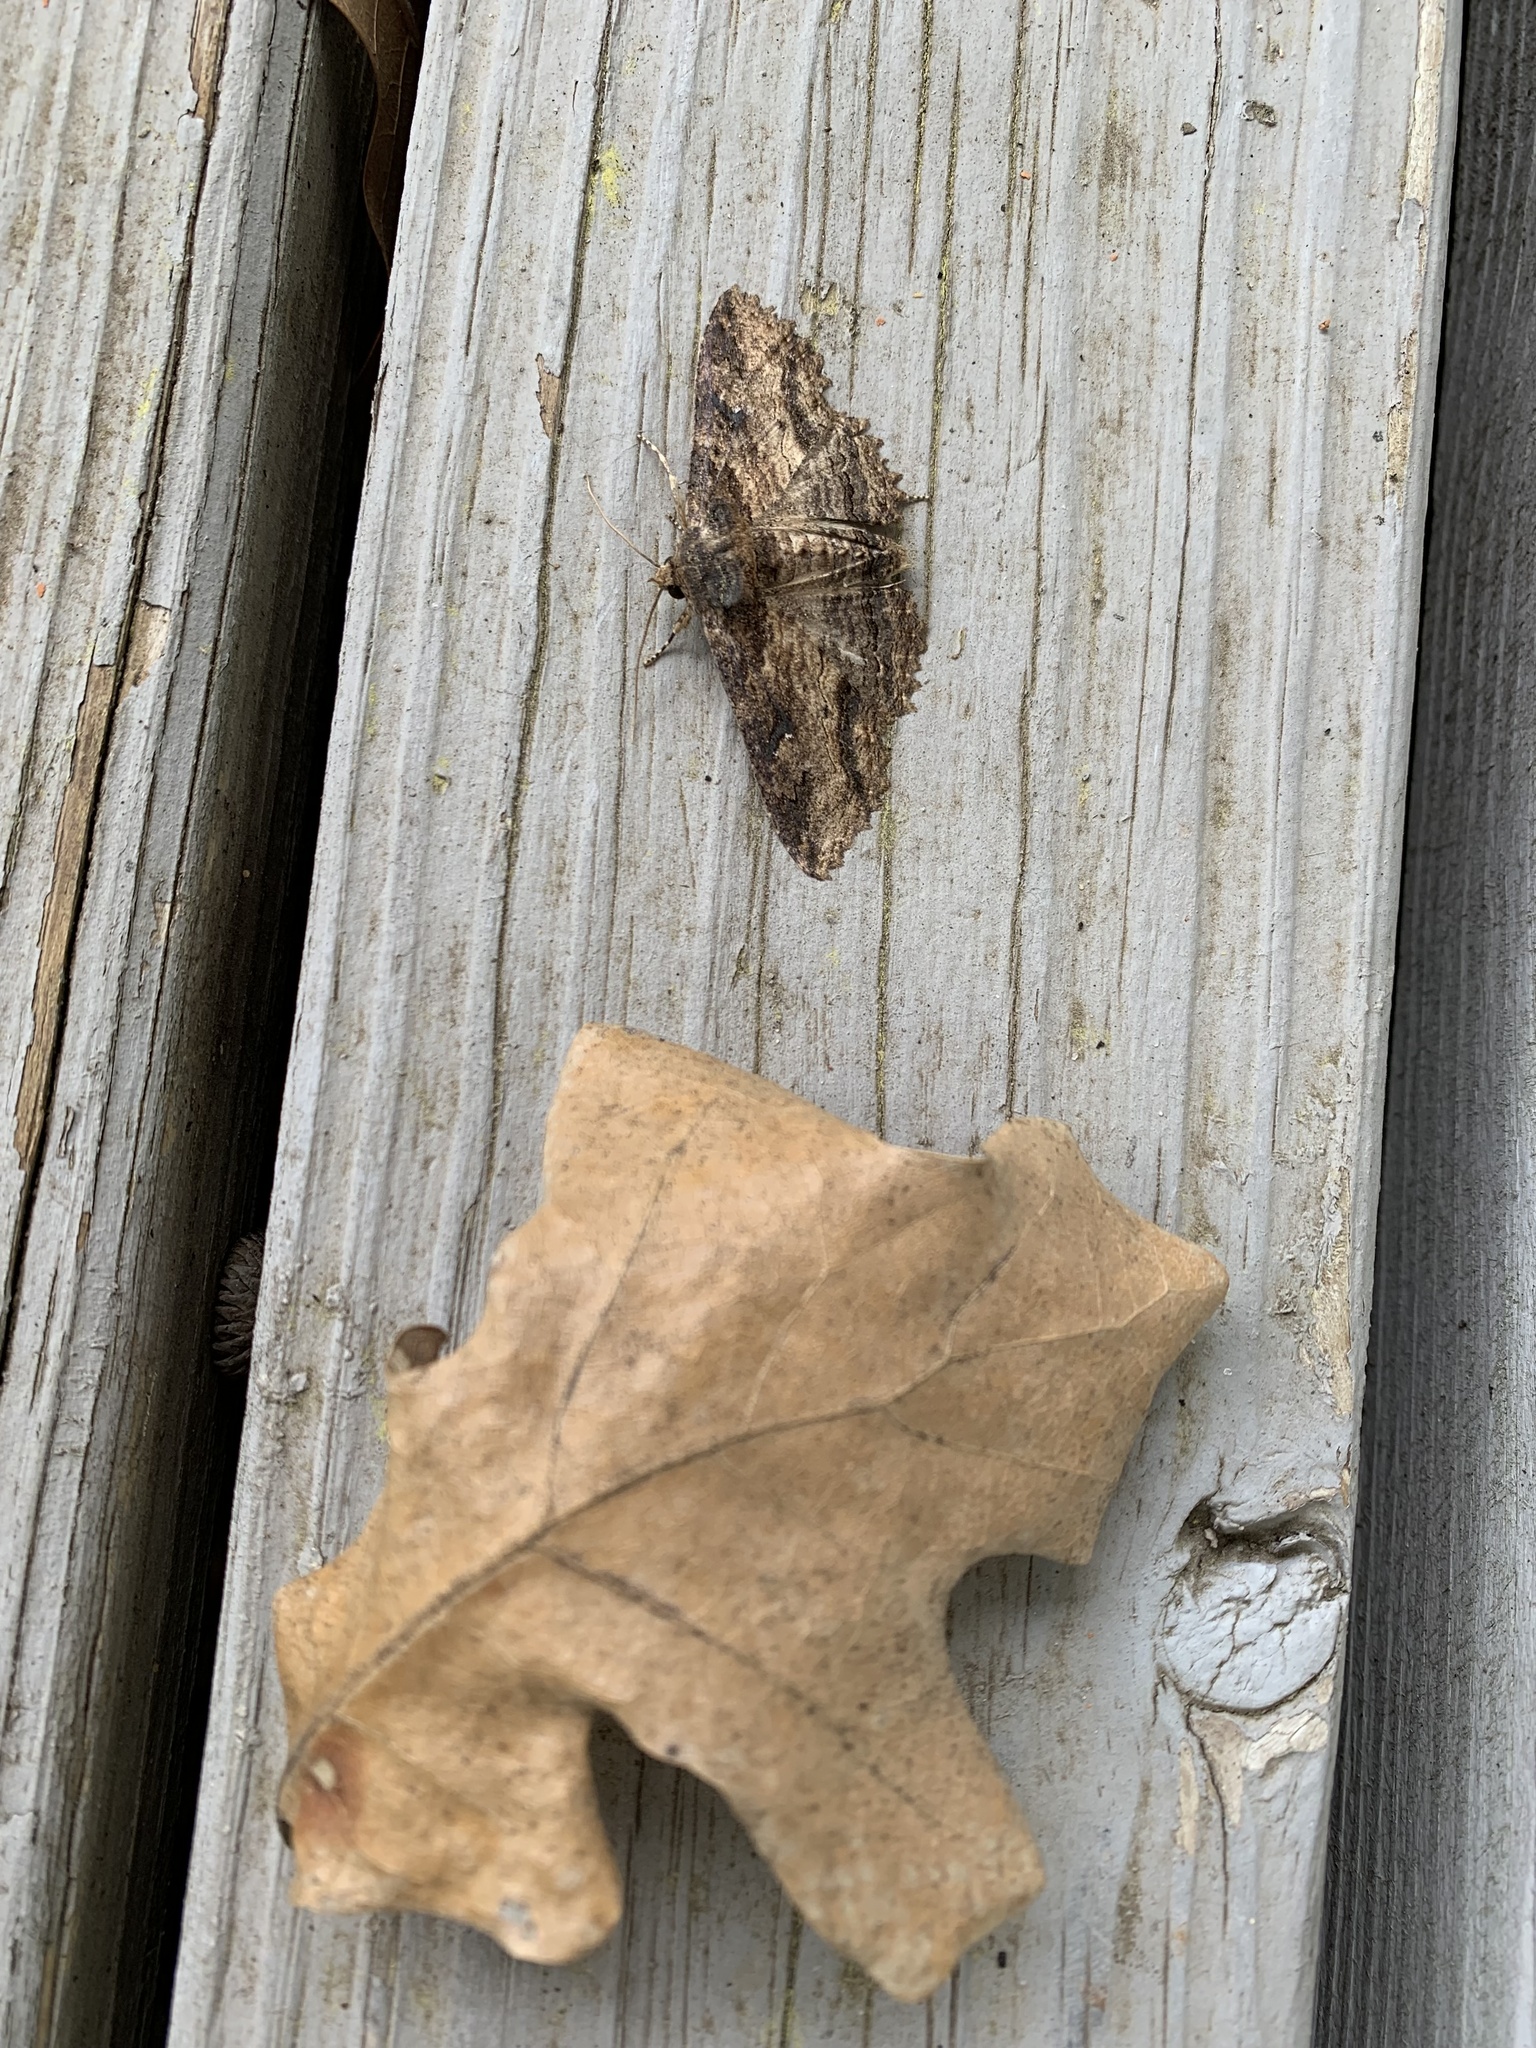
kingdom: Animalia
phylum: Arthropoda
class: Insecta
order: Lepidoptera
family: Erebidae
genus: Zale
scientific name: Zale lunata
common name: Lunate zale moth
